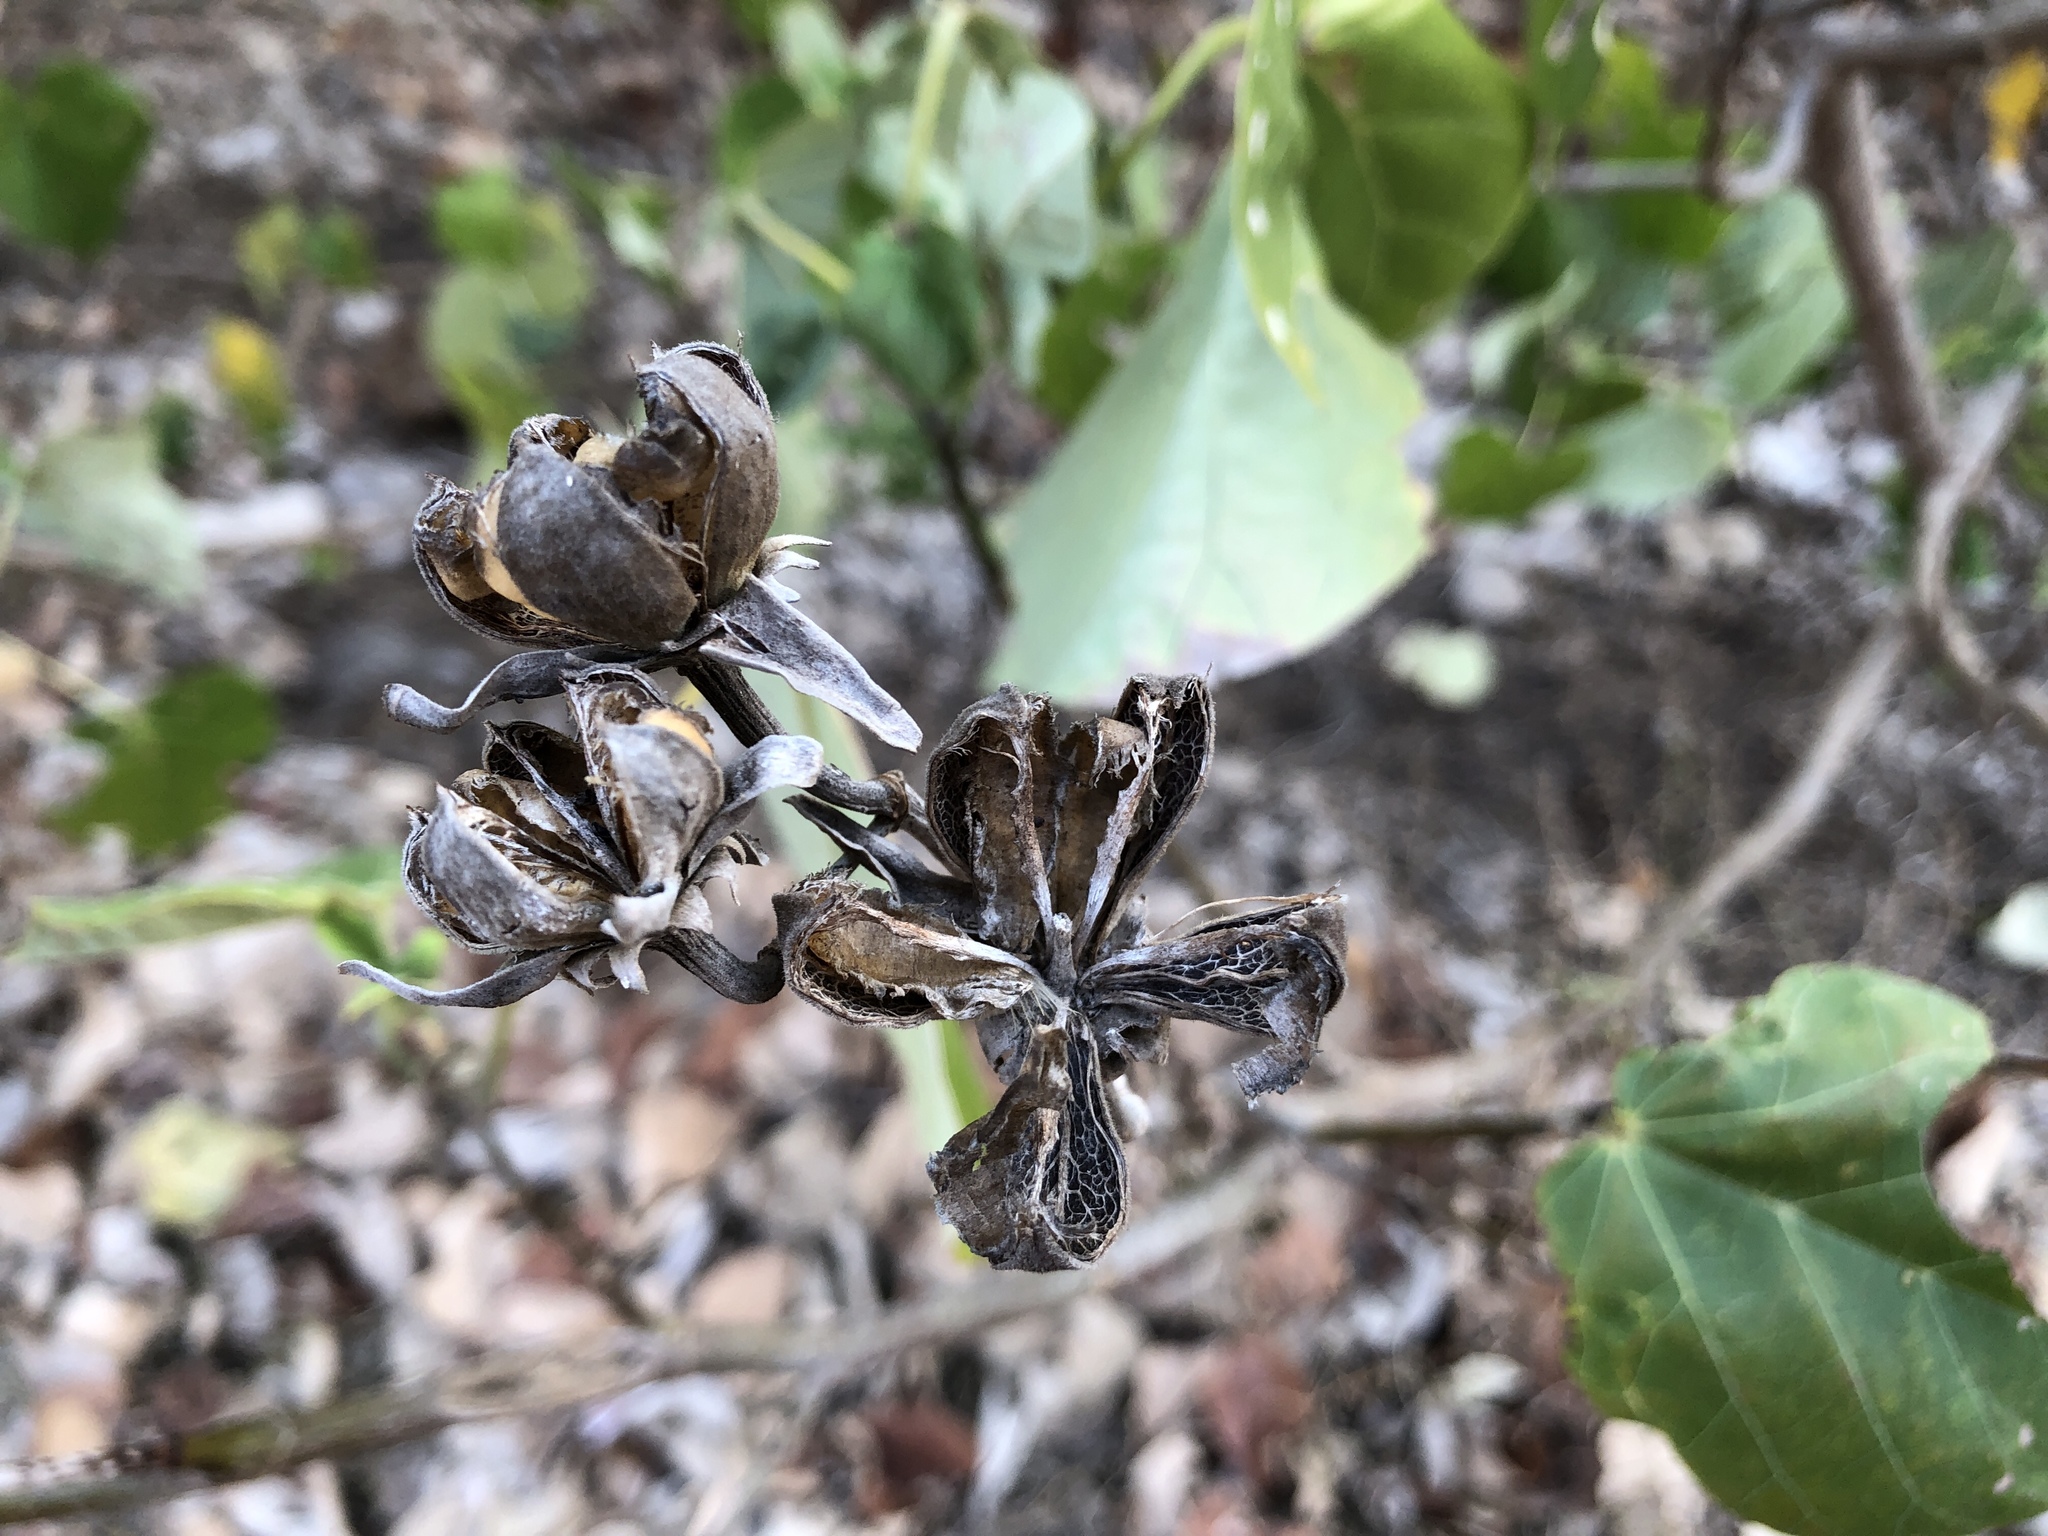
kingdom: Plantae
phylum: Tracheophyta
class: Magnoliopsida
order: Malvales
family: Malvaceae
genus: Talipariti
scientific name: Talipariti tiliaceum
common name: Sea hibiscus
